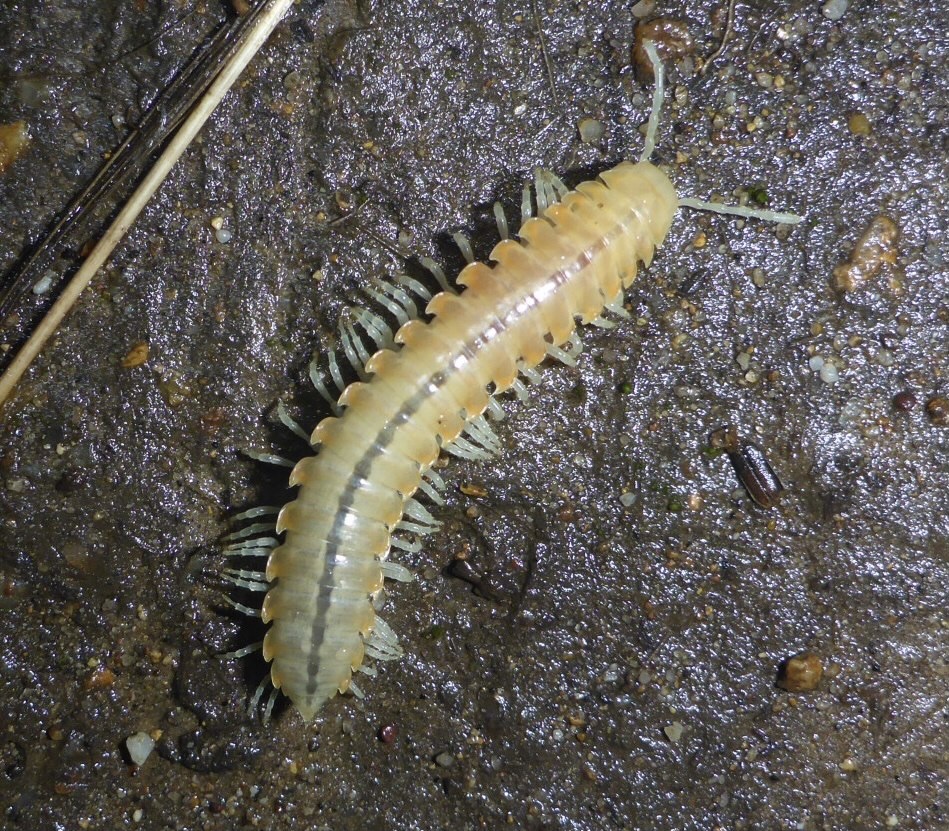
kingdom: Animalia
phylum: Arthropoda
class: Diplopoda
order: Polydesmida
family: Xystodesmidae
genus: Xystocheir
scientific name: Xystocheir dissecta
